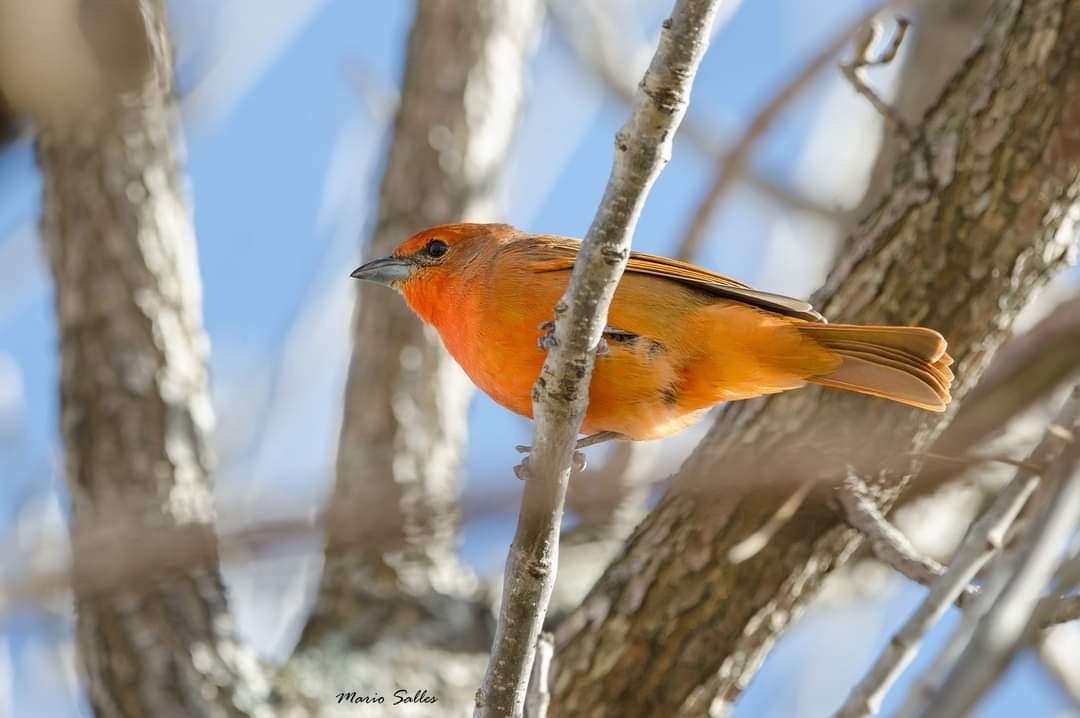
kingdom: Animalia
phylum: Chordata
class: Aves
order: Passeriformes
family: Cardinalidae
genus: Piranga
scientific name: Piranga flava
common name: Red tanager
